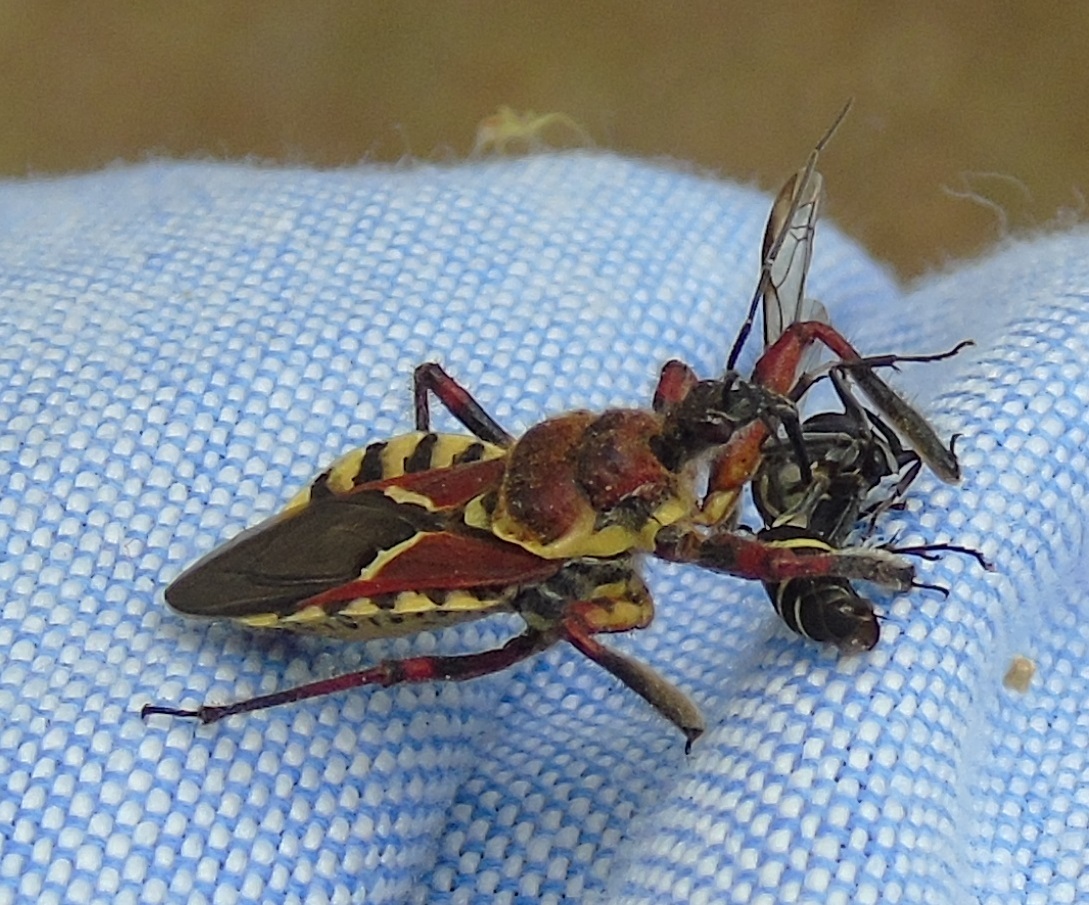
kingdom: Animalia
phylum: Arthropoda
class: Insecta
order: Hemiptera
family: Reduviidae
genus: Apiomerus
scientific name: Apiomerus flaviventris
